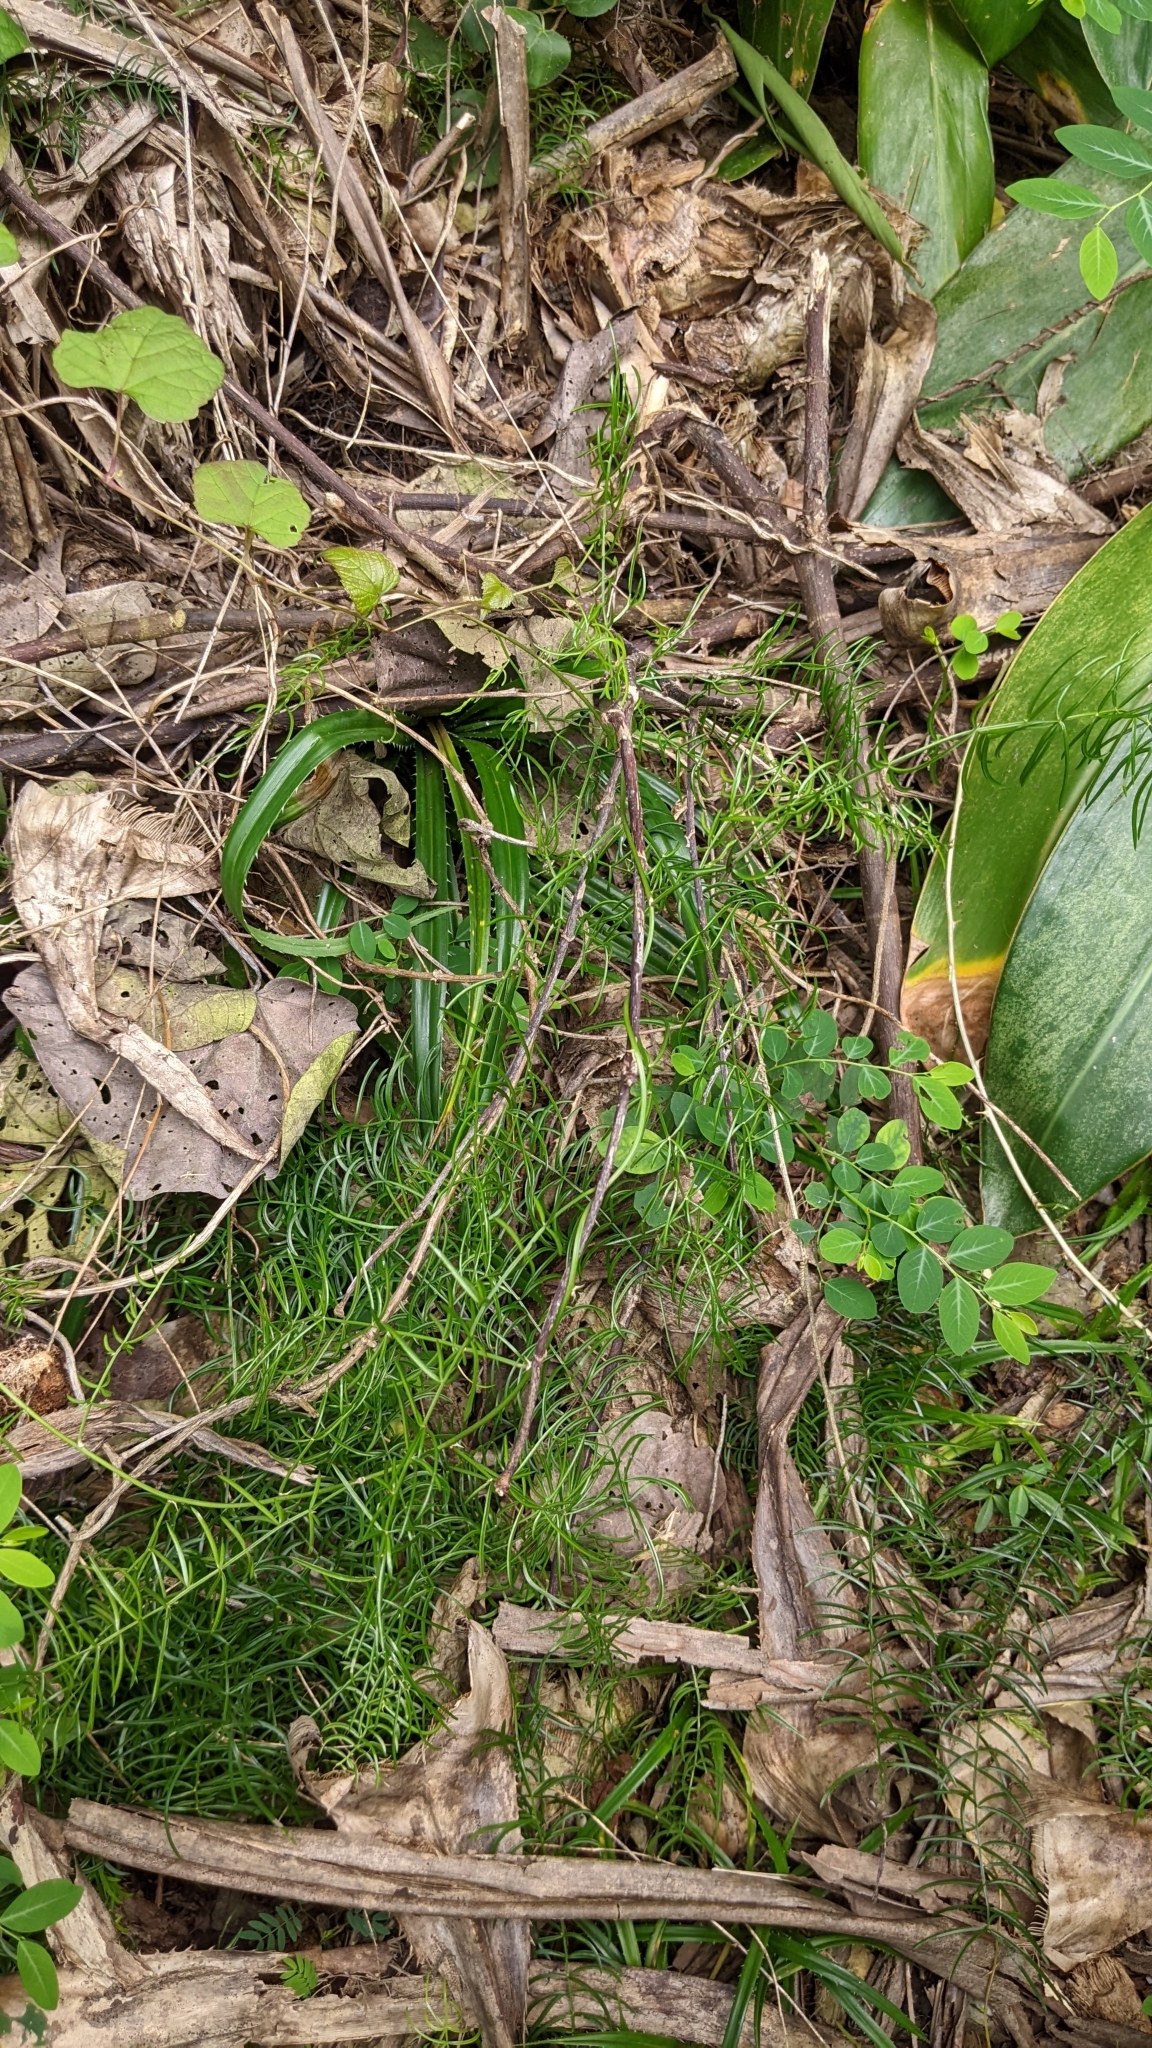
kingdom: Plantae
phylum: Tracheophyta
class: Liliopsida
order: Asparagales
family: Asparagaceae
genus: Asparagus
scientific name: Asparagus cochinchinensis
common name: Chinese asparagus
